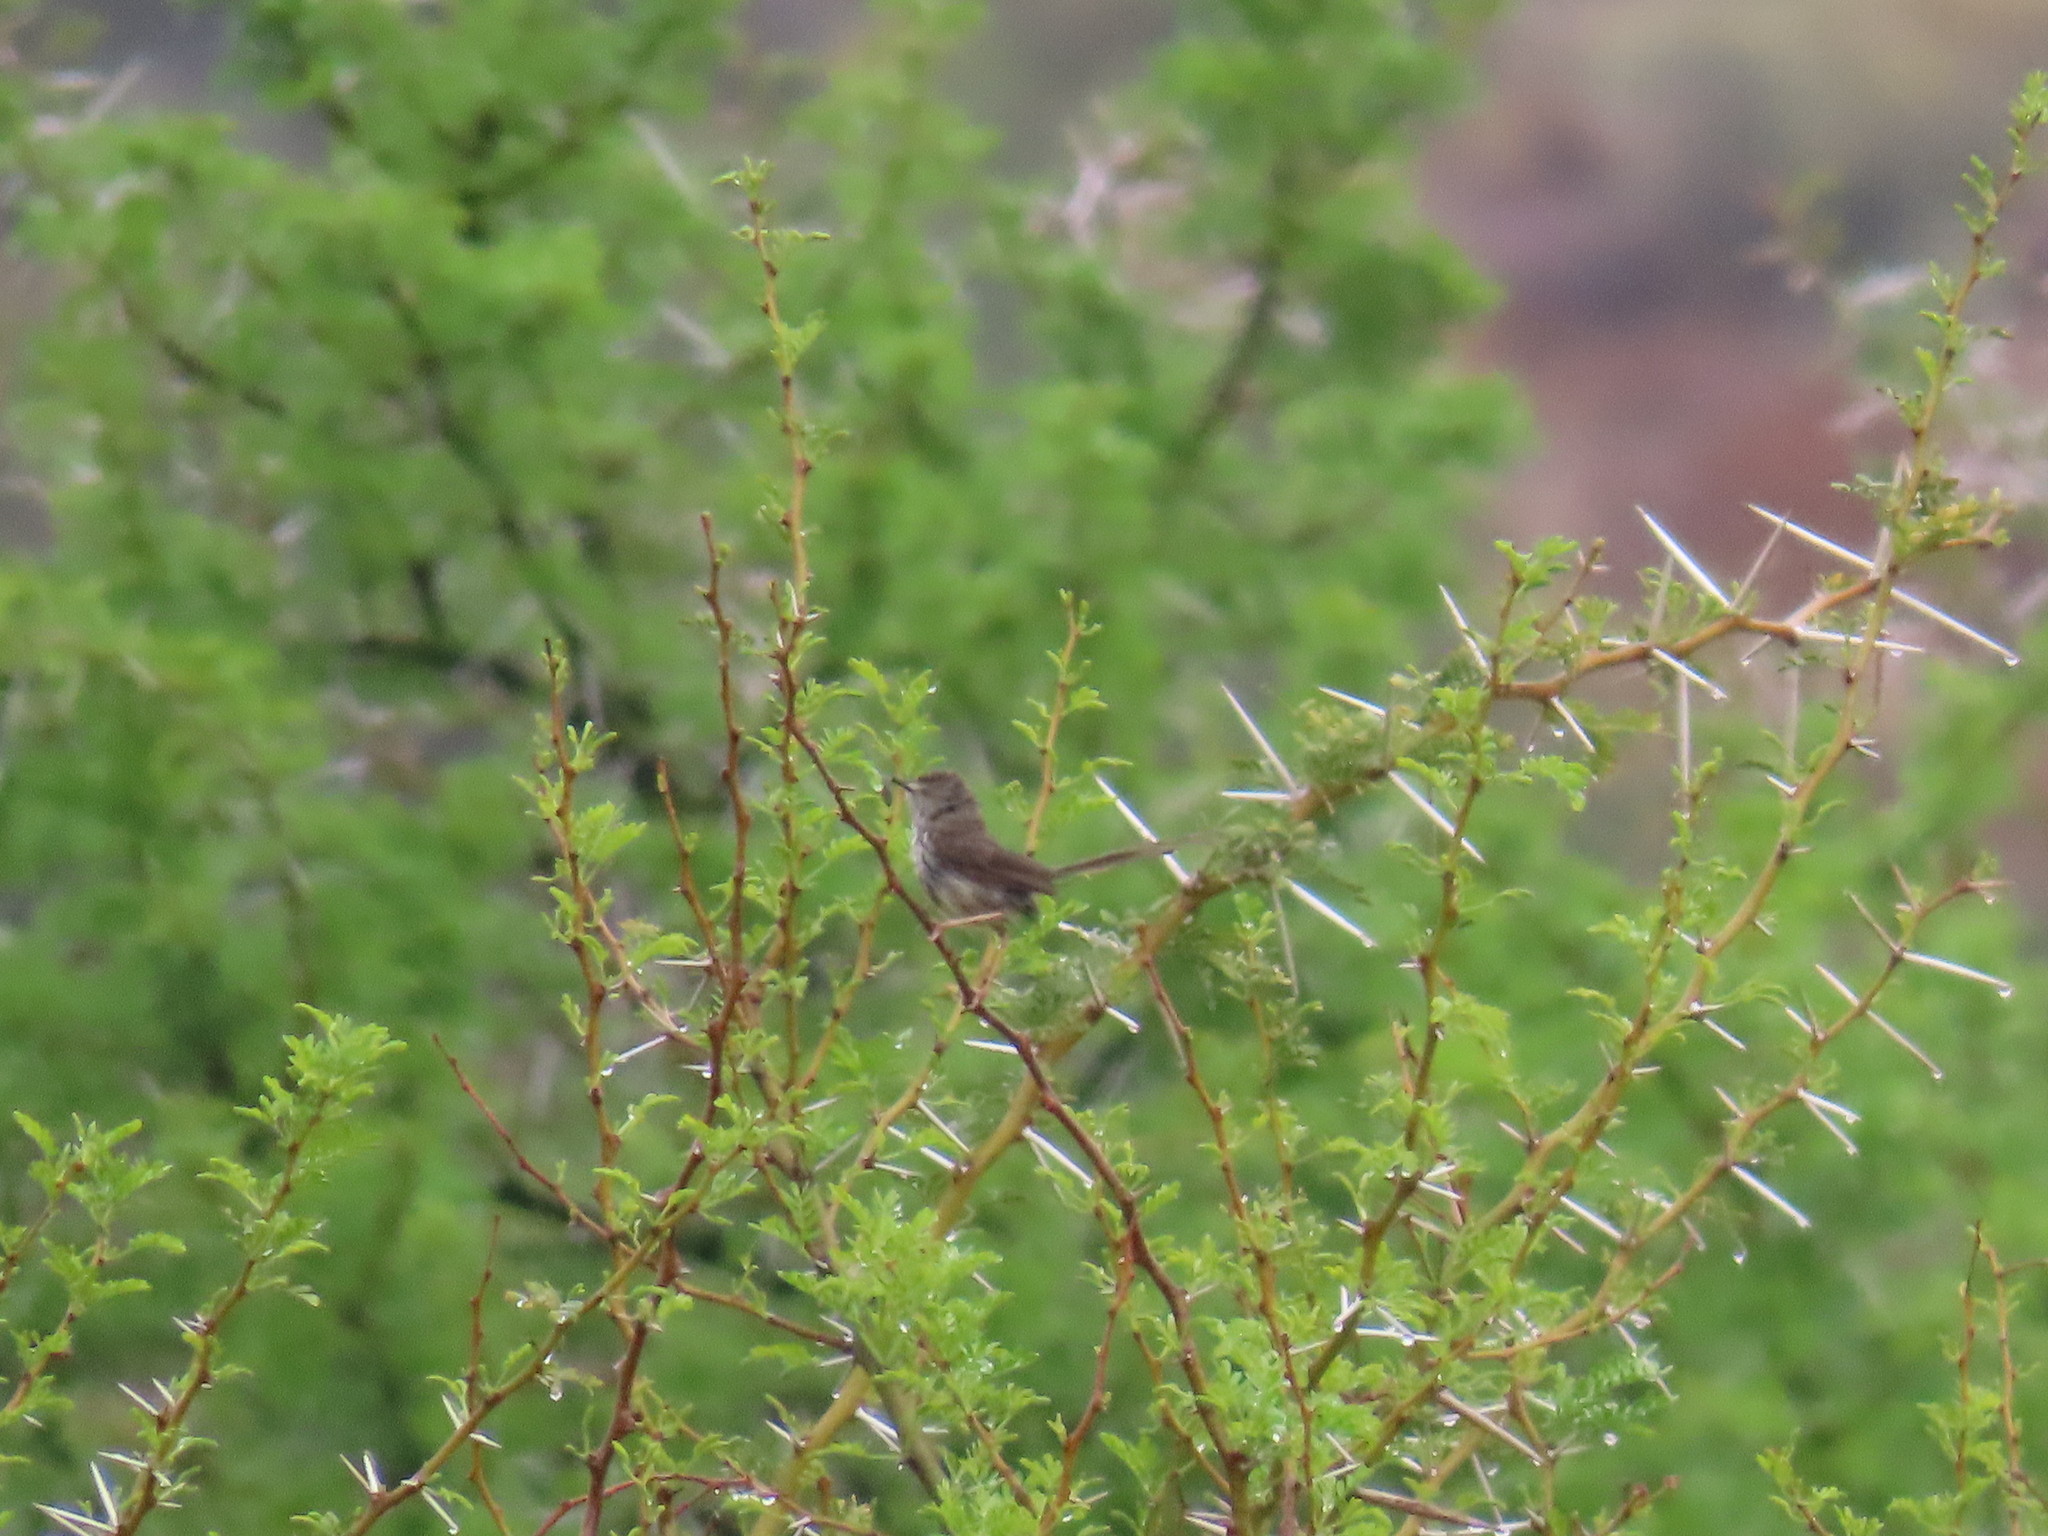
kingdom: Animalia
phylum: Chordata
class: Aves
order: Passeriformes
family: Cisticolidae
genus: Prinia
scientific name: Prinia maculosa
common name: Karoo prinia
